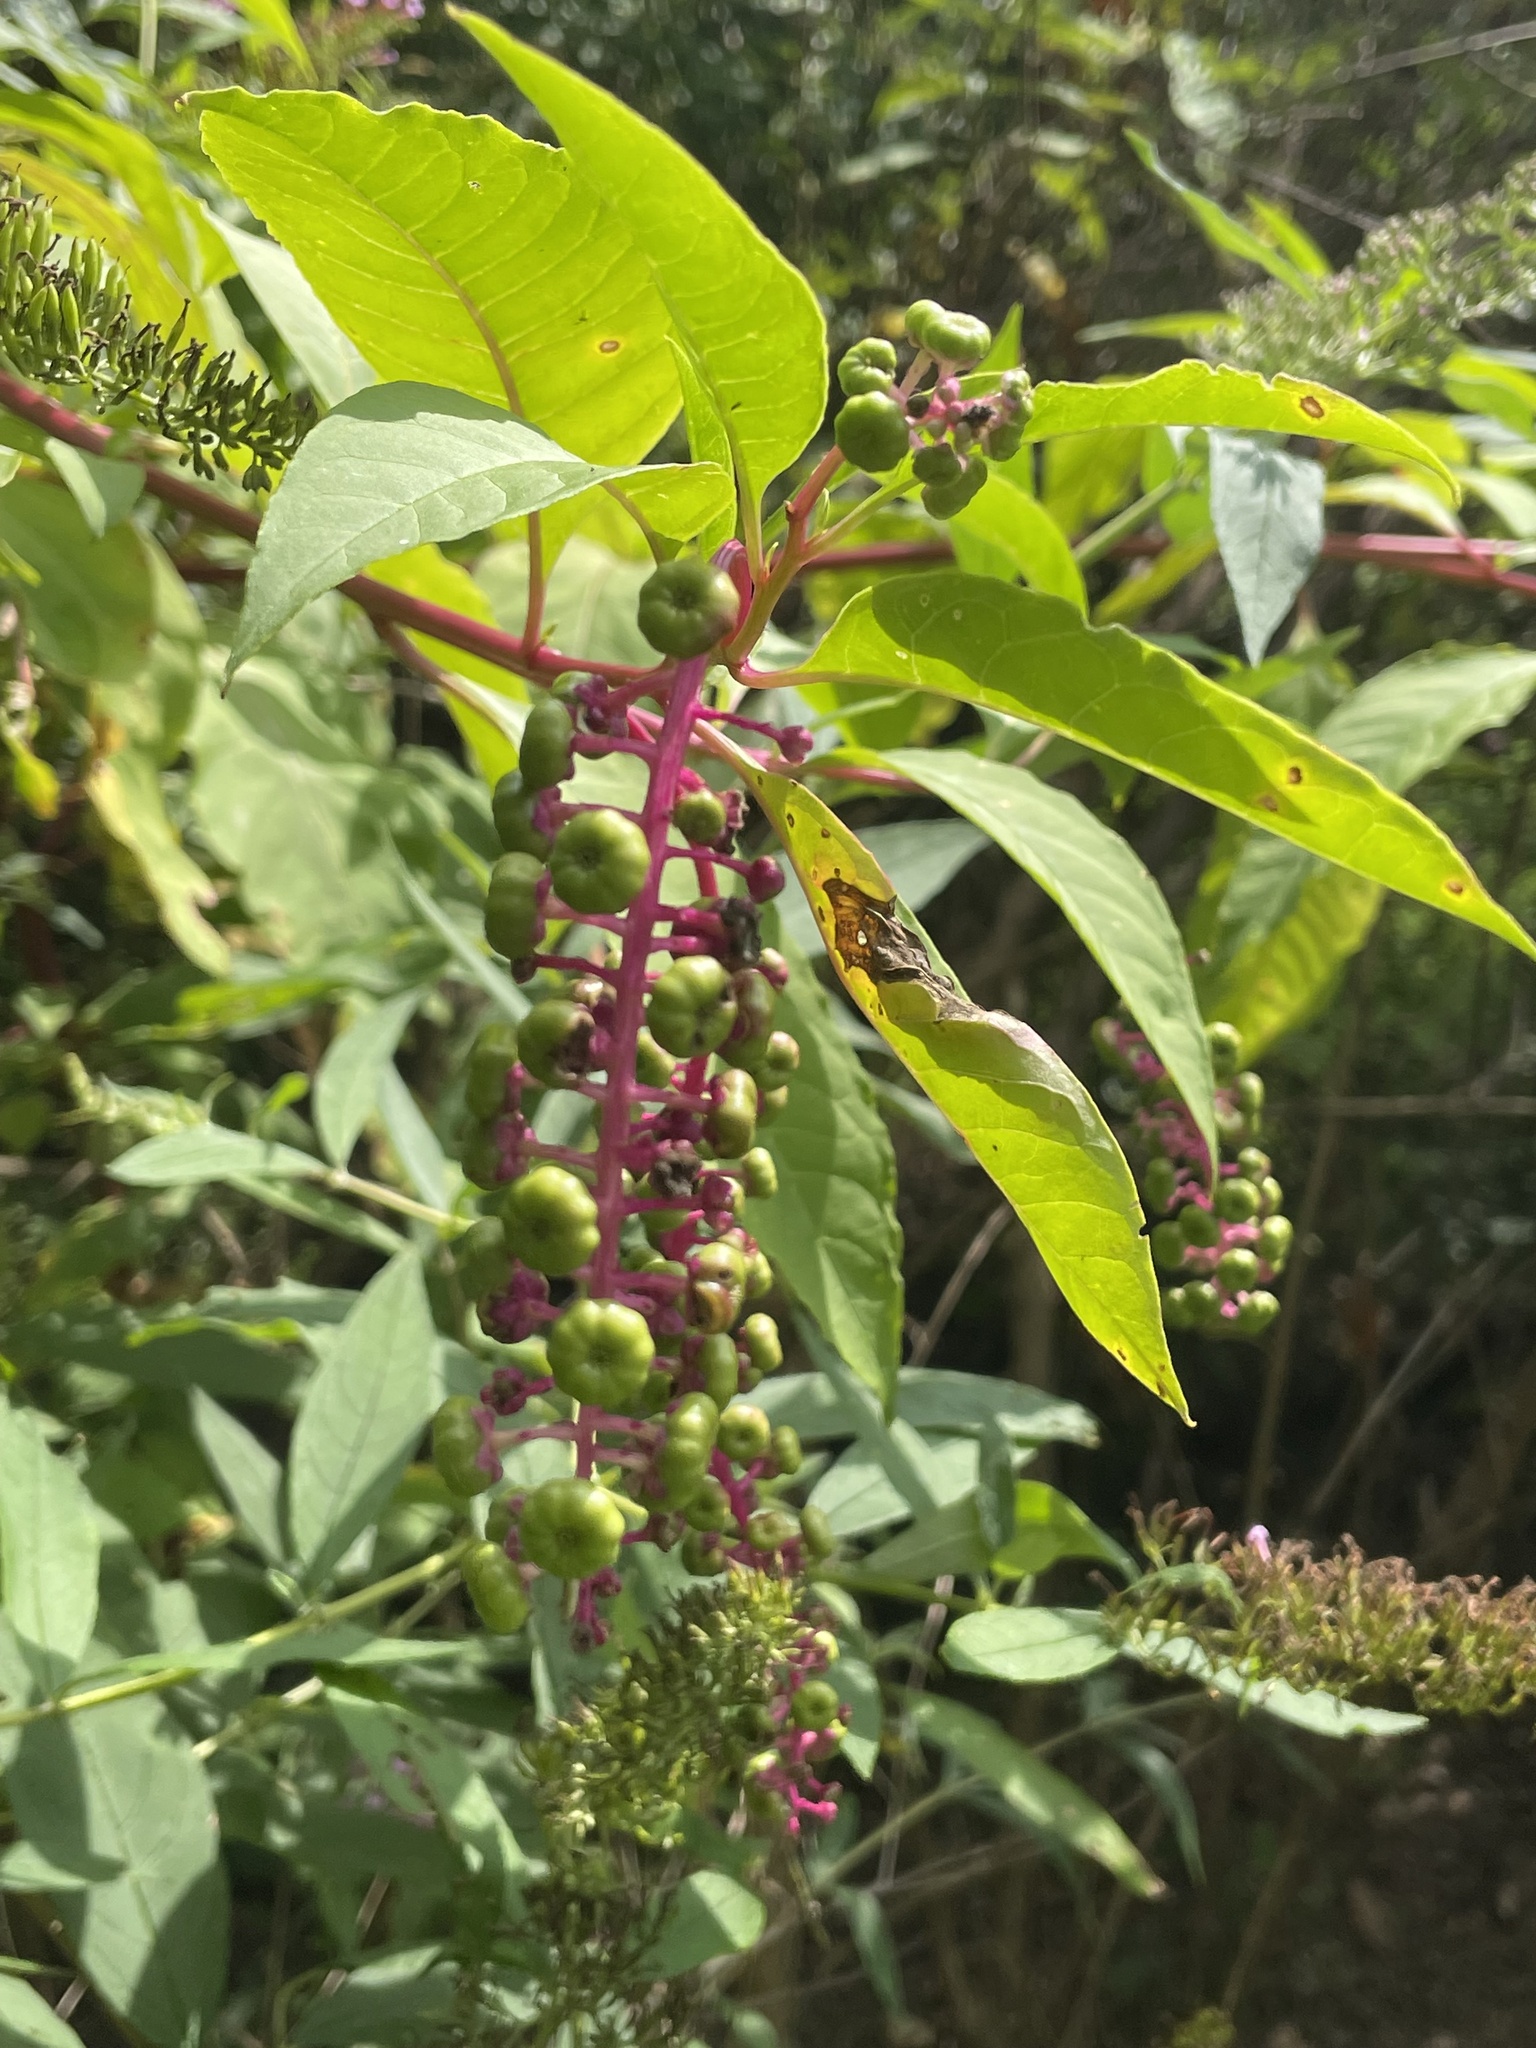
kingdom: Plantae
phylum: Tracheophyta
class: Magnoliopsida
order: Caryophyllales
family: Phytolaccaceae
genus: Phytolacca
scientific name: Phytolacca americana
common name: American pokeweed
